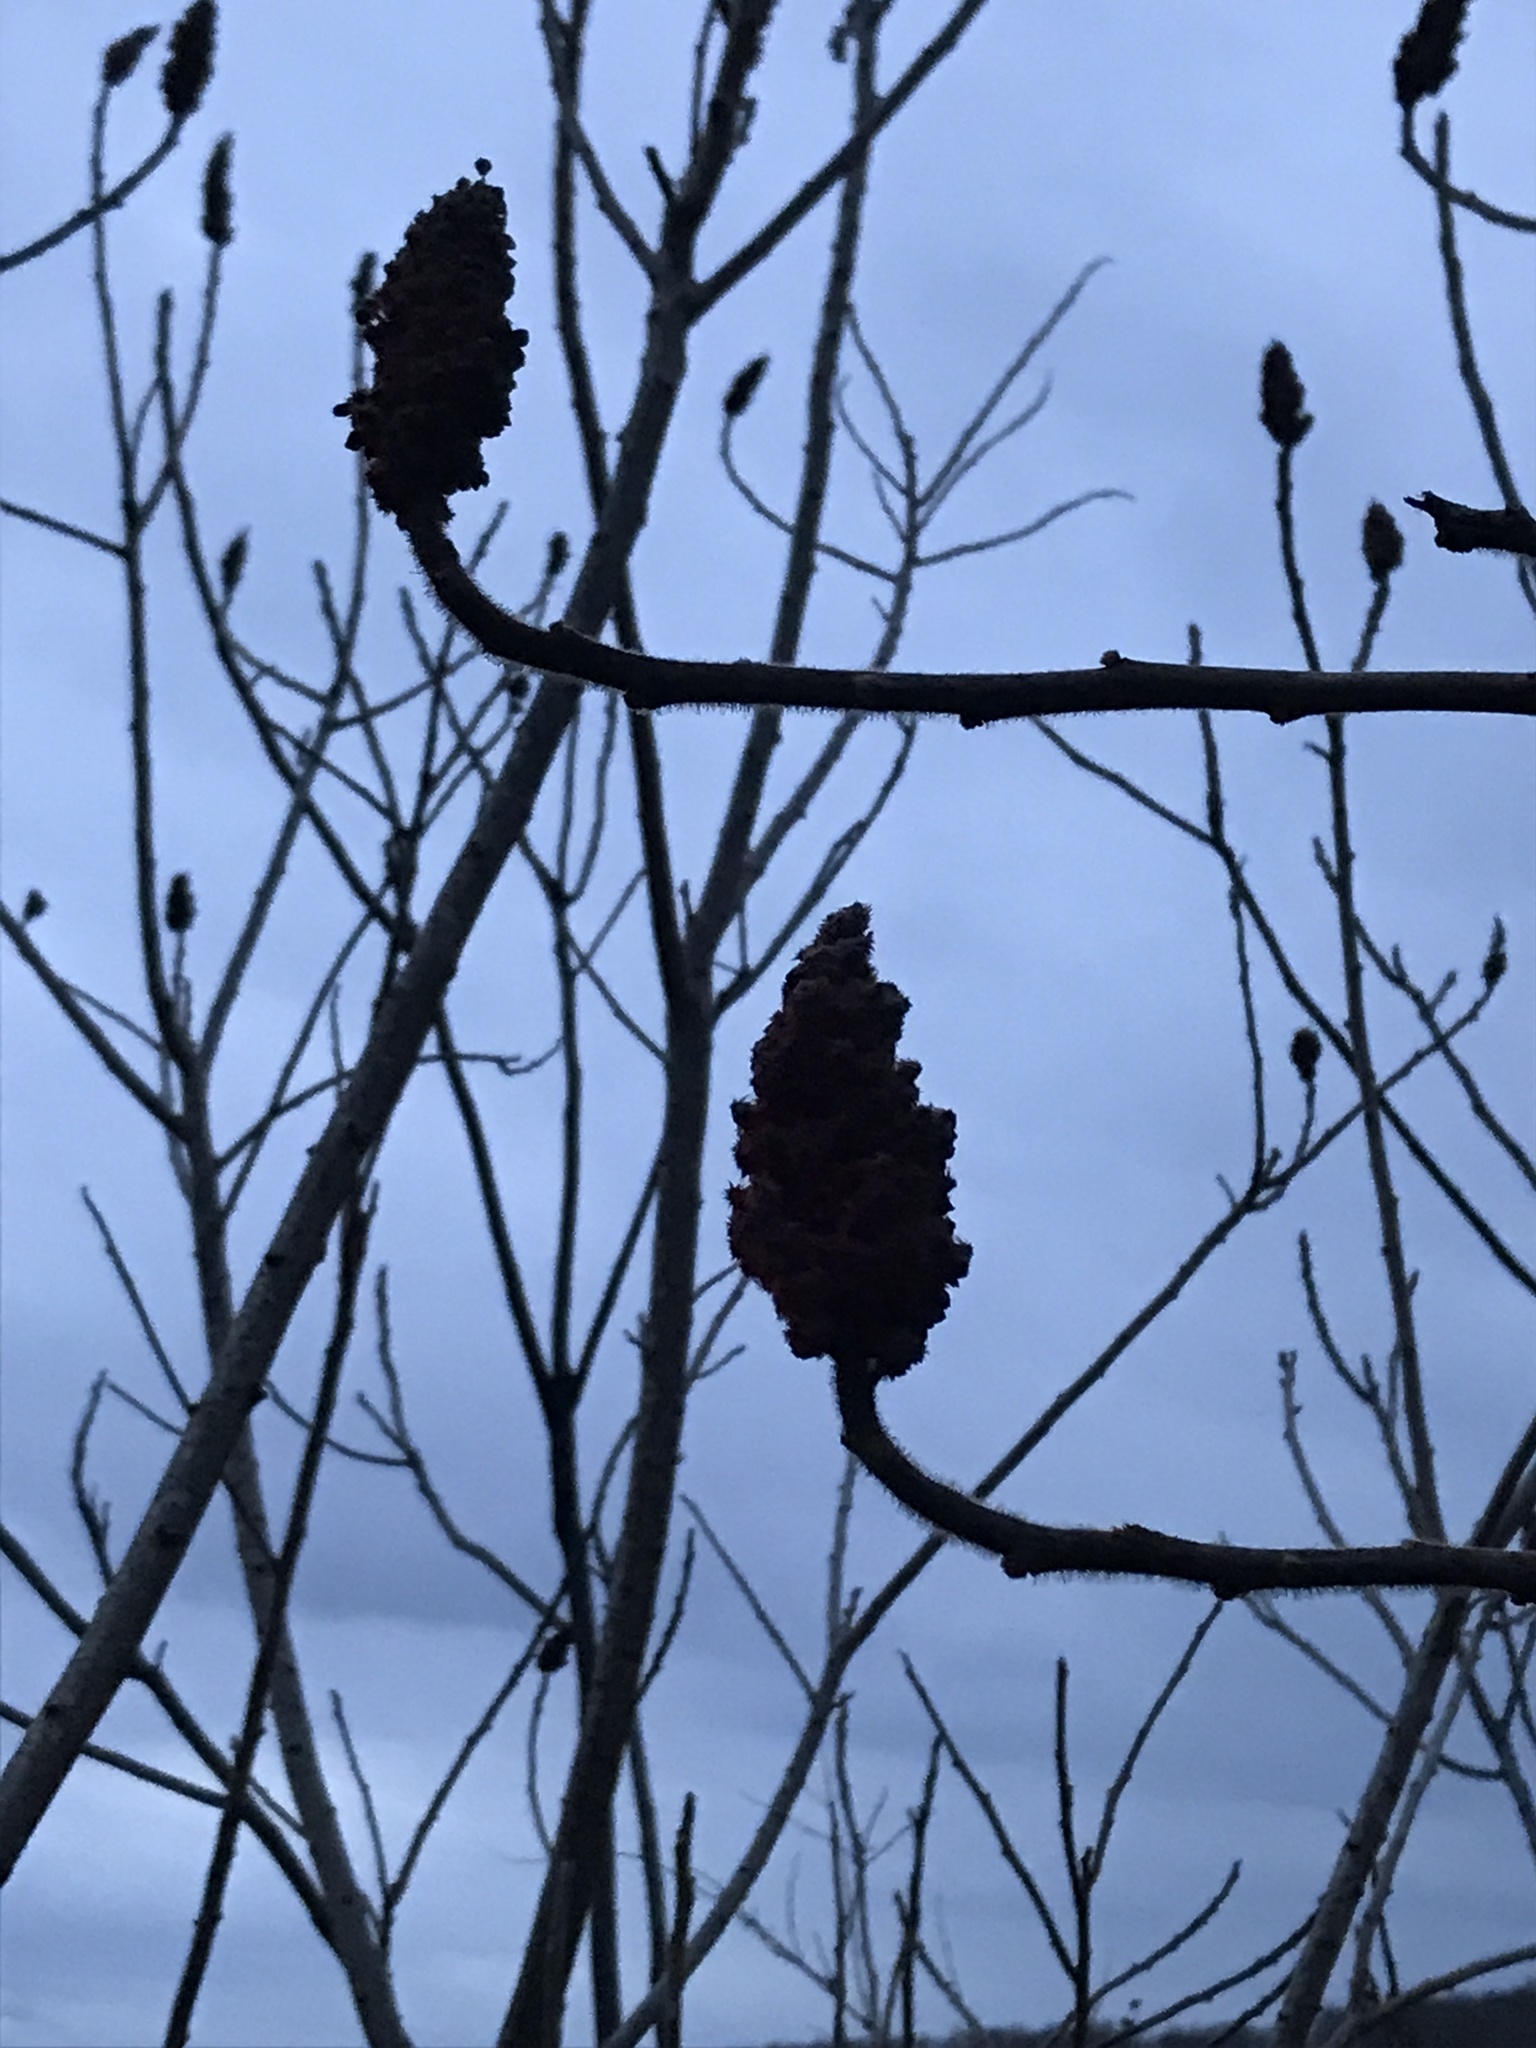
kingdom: Plantae
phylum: Tracheophyta
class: Magnoliopsida
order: Sapindales
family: Anacardiaceae
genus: Rhus
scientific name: Rhus typhina
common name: Staghorn sumac
